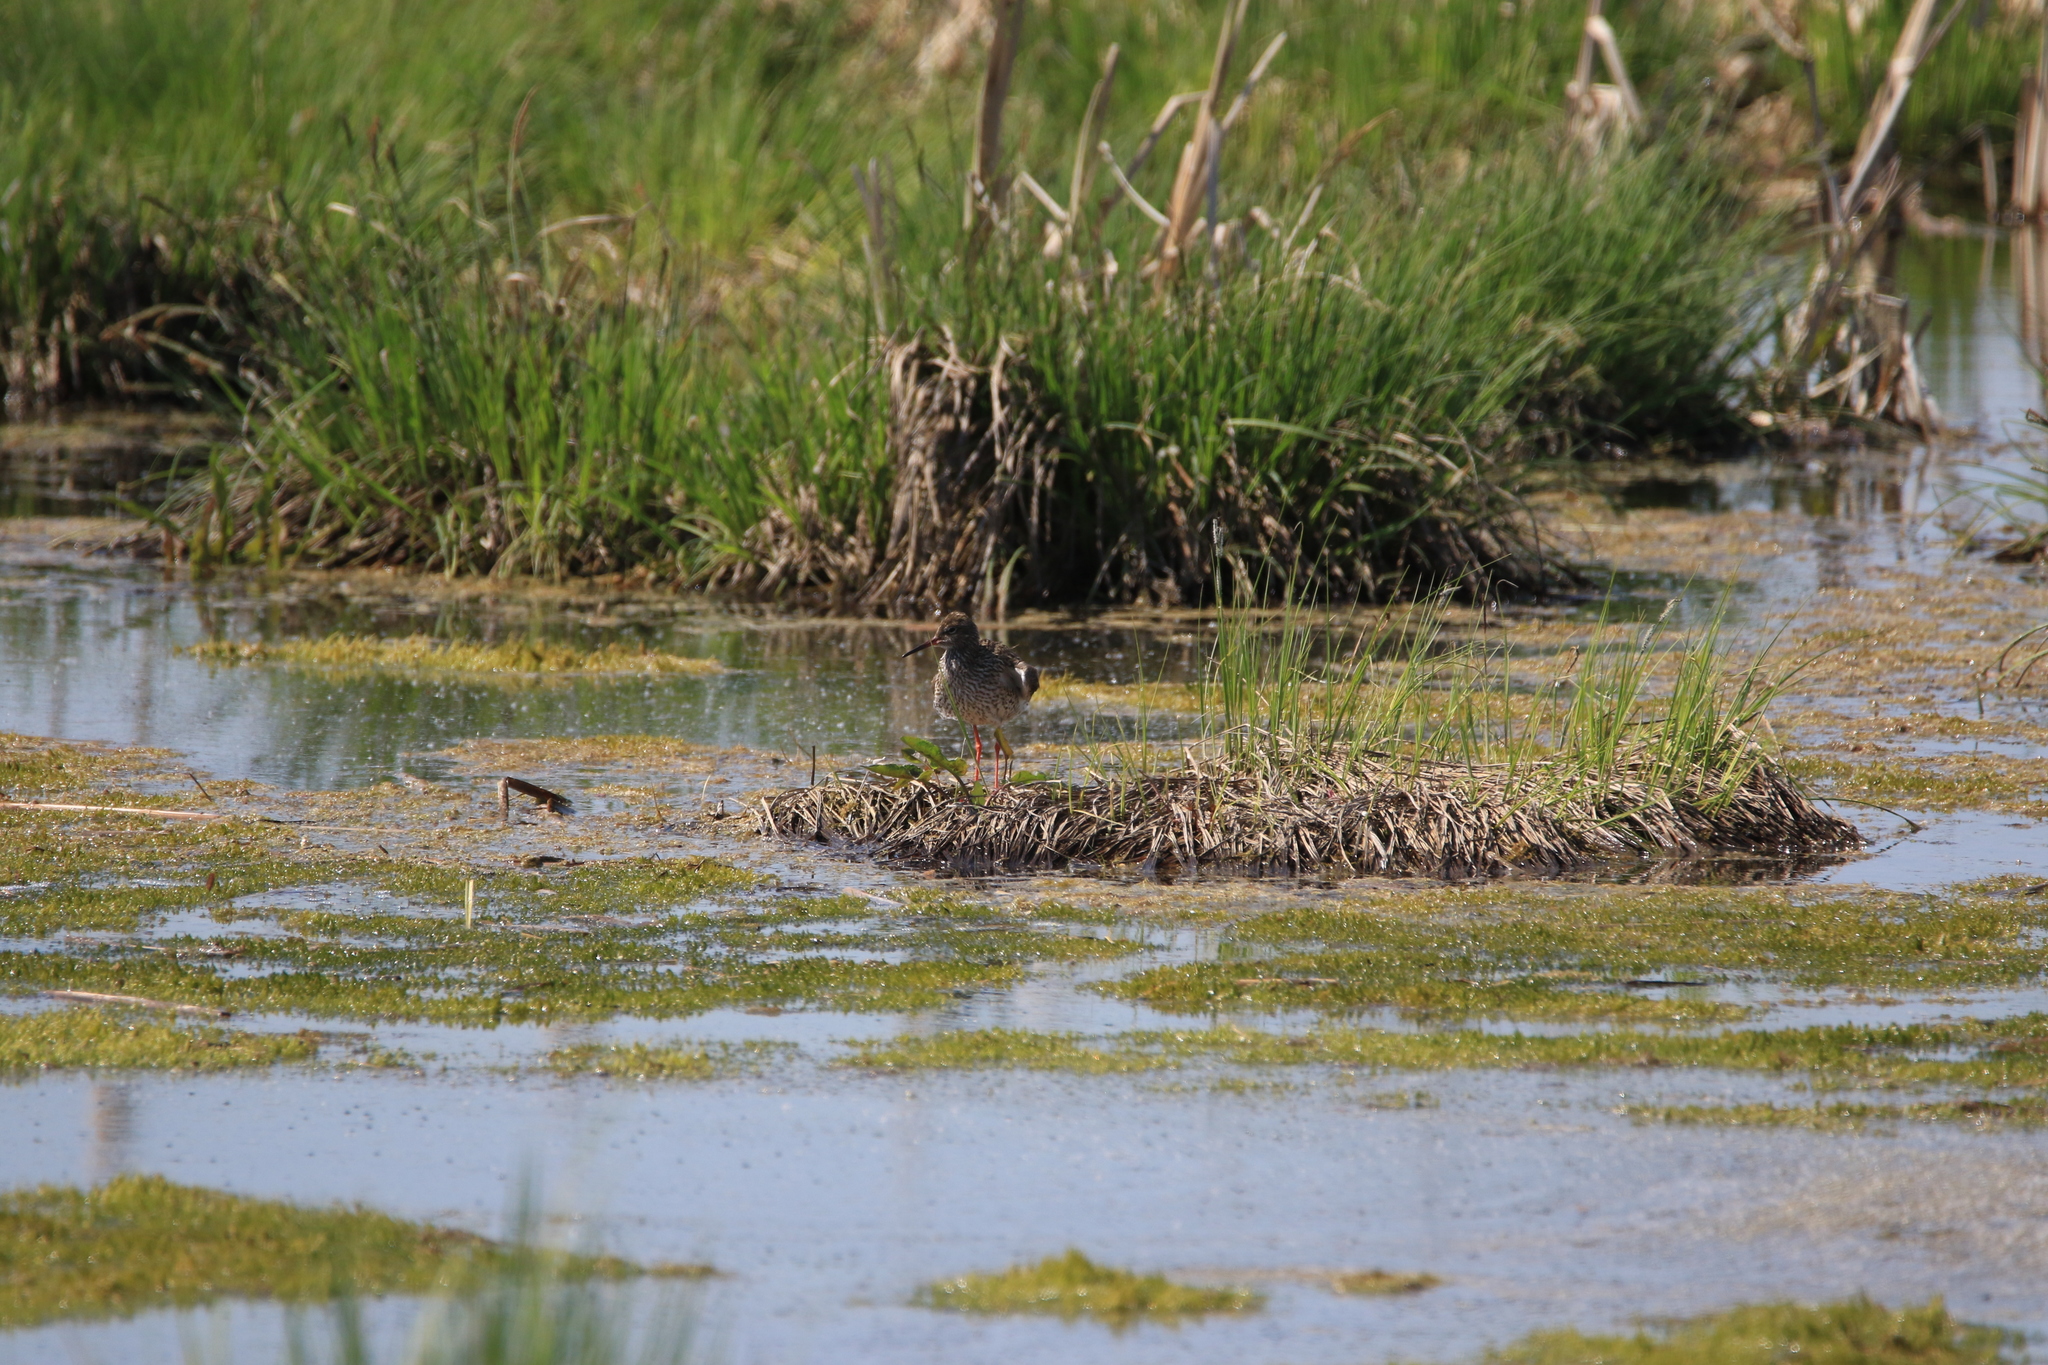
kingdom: Animalia
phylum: Chordata
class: Aves
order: Charadriiformes
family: Scolopacidae
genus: Tringa
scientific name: Tringa totanus
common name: Common redshank
